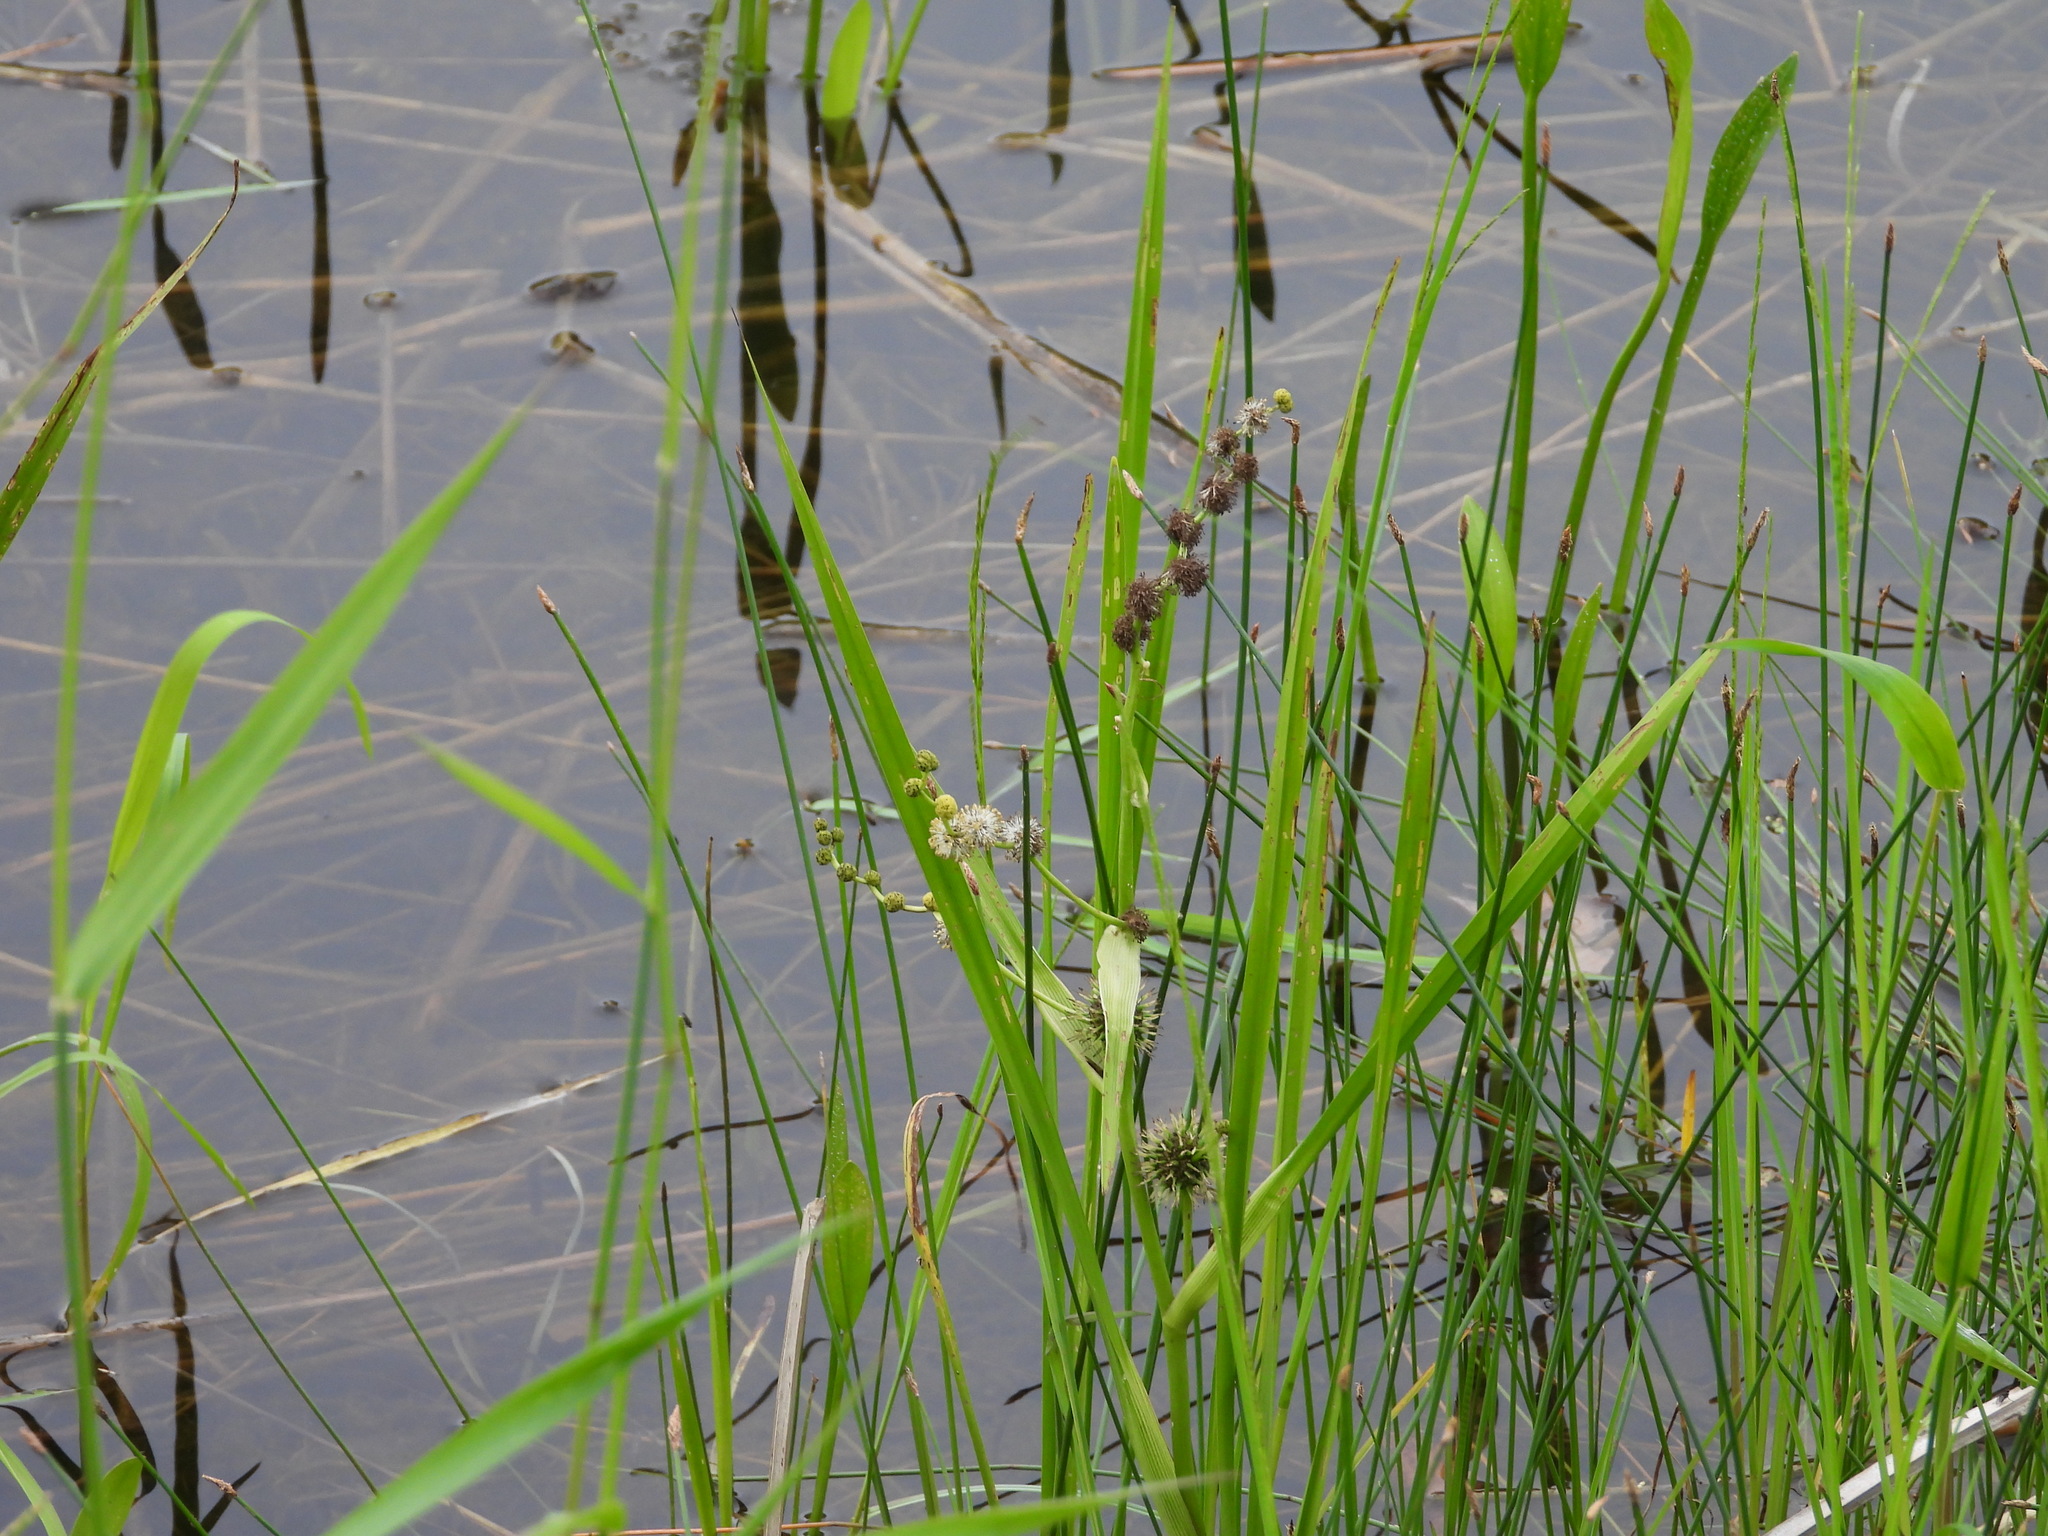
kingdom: Plantae
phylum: Tracheophyta
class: Liliopsida
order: Poales
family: Typhaceae
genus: Sparganium
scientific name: Sparganium eurycarpum
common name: Broad-fruited burreed
